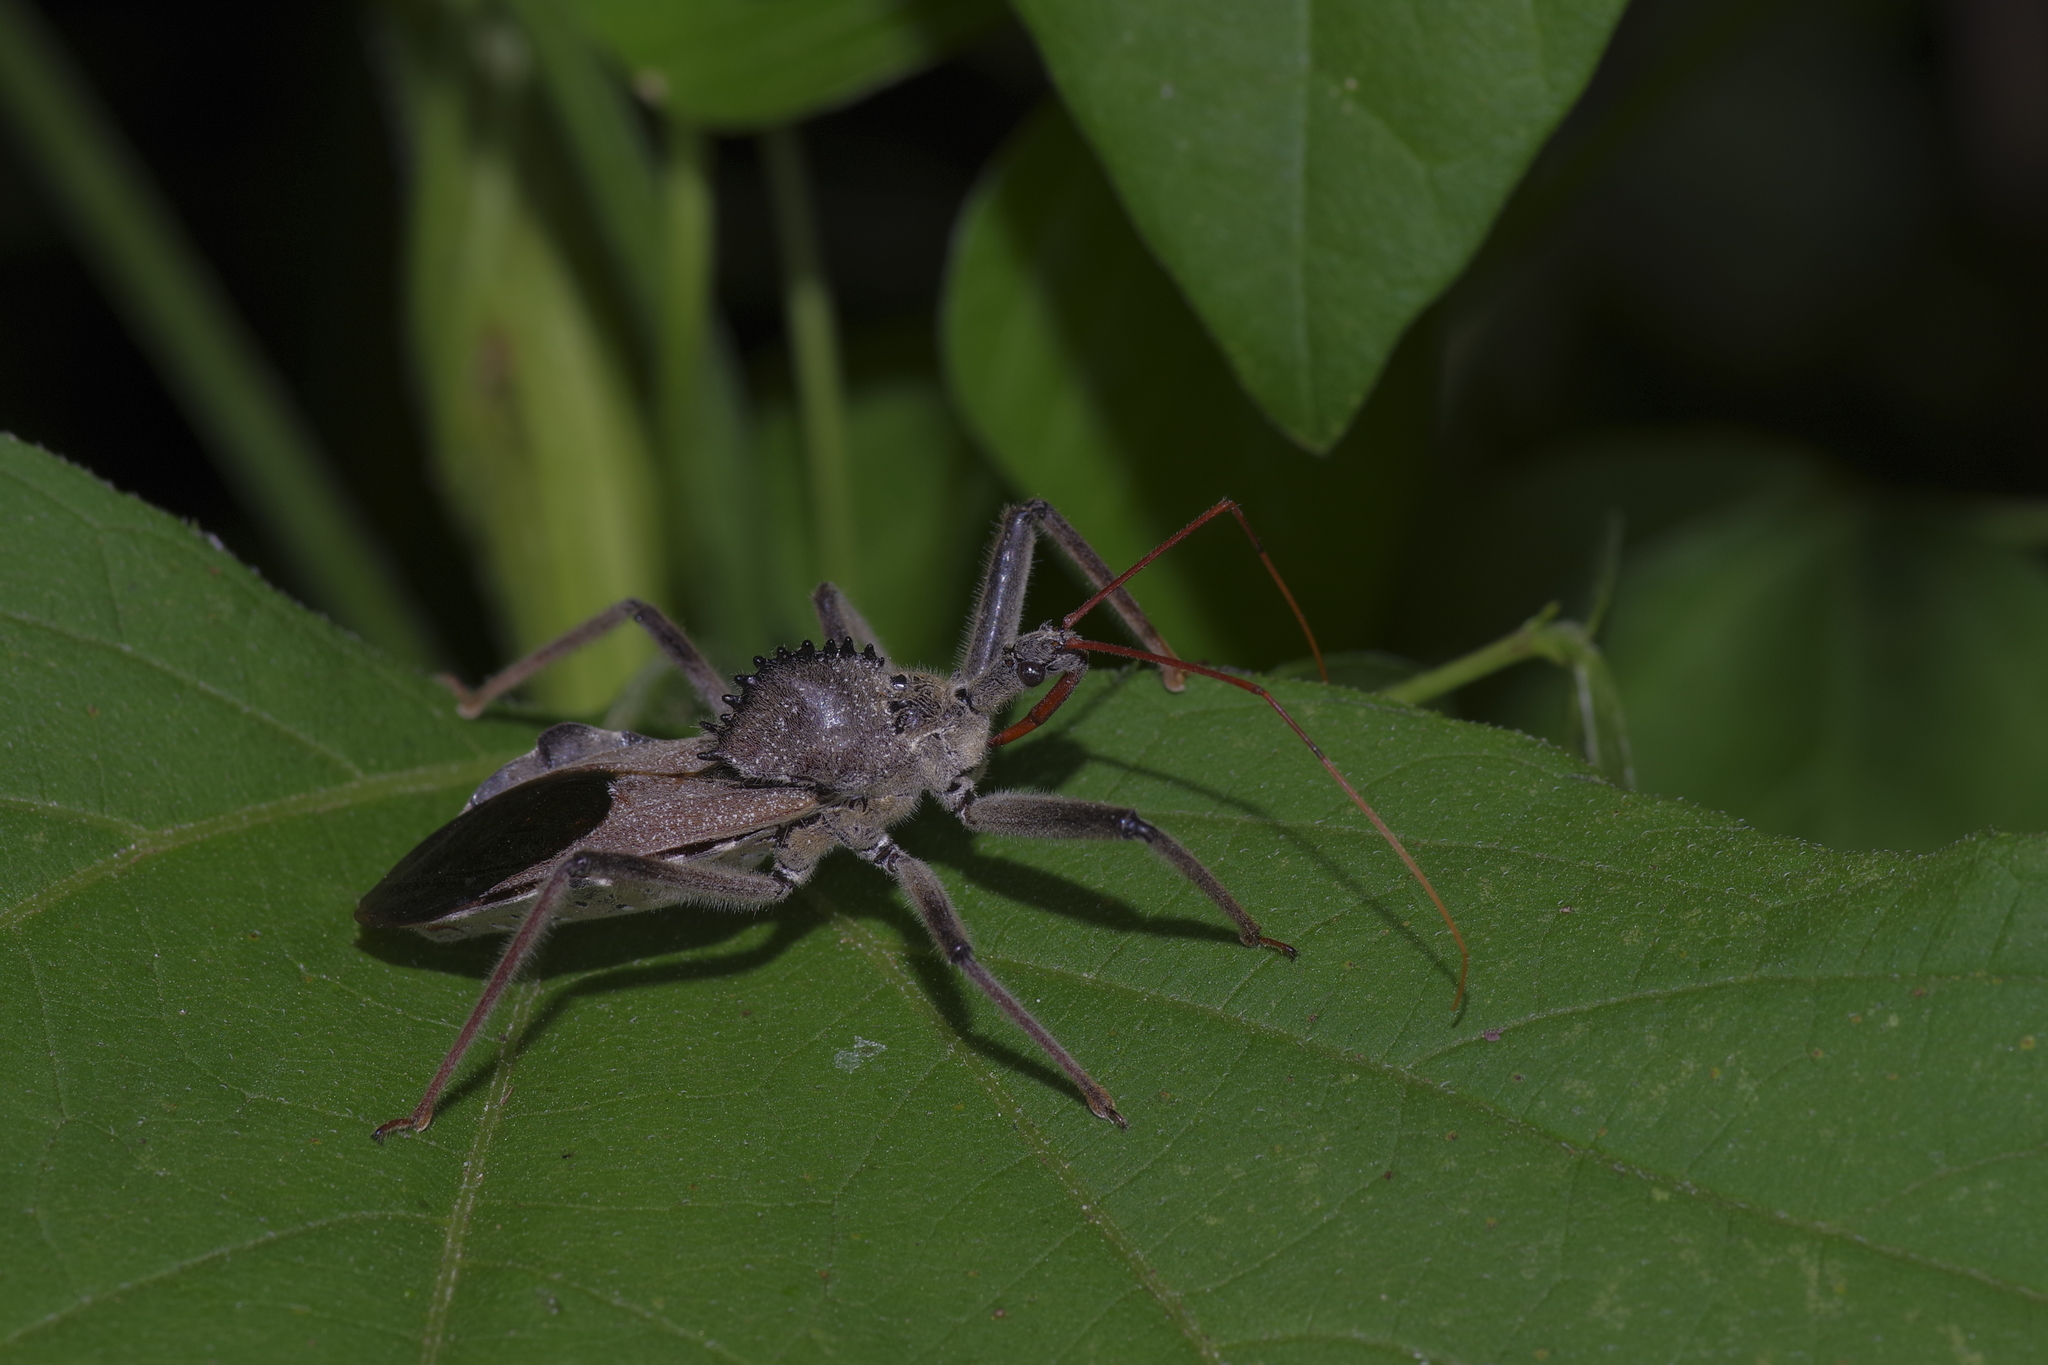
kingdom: Animalia
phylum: Arthropoda
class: Insecta
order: Hemiptera
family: Reduviidae
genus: Arilus
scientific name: Arilus cristatus
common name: North american wheel bug
